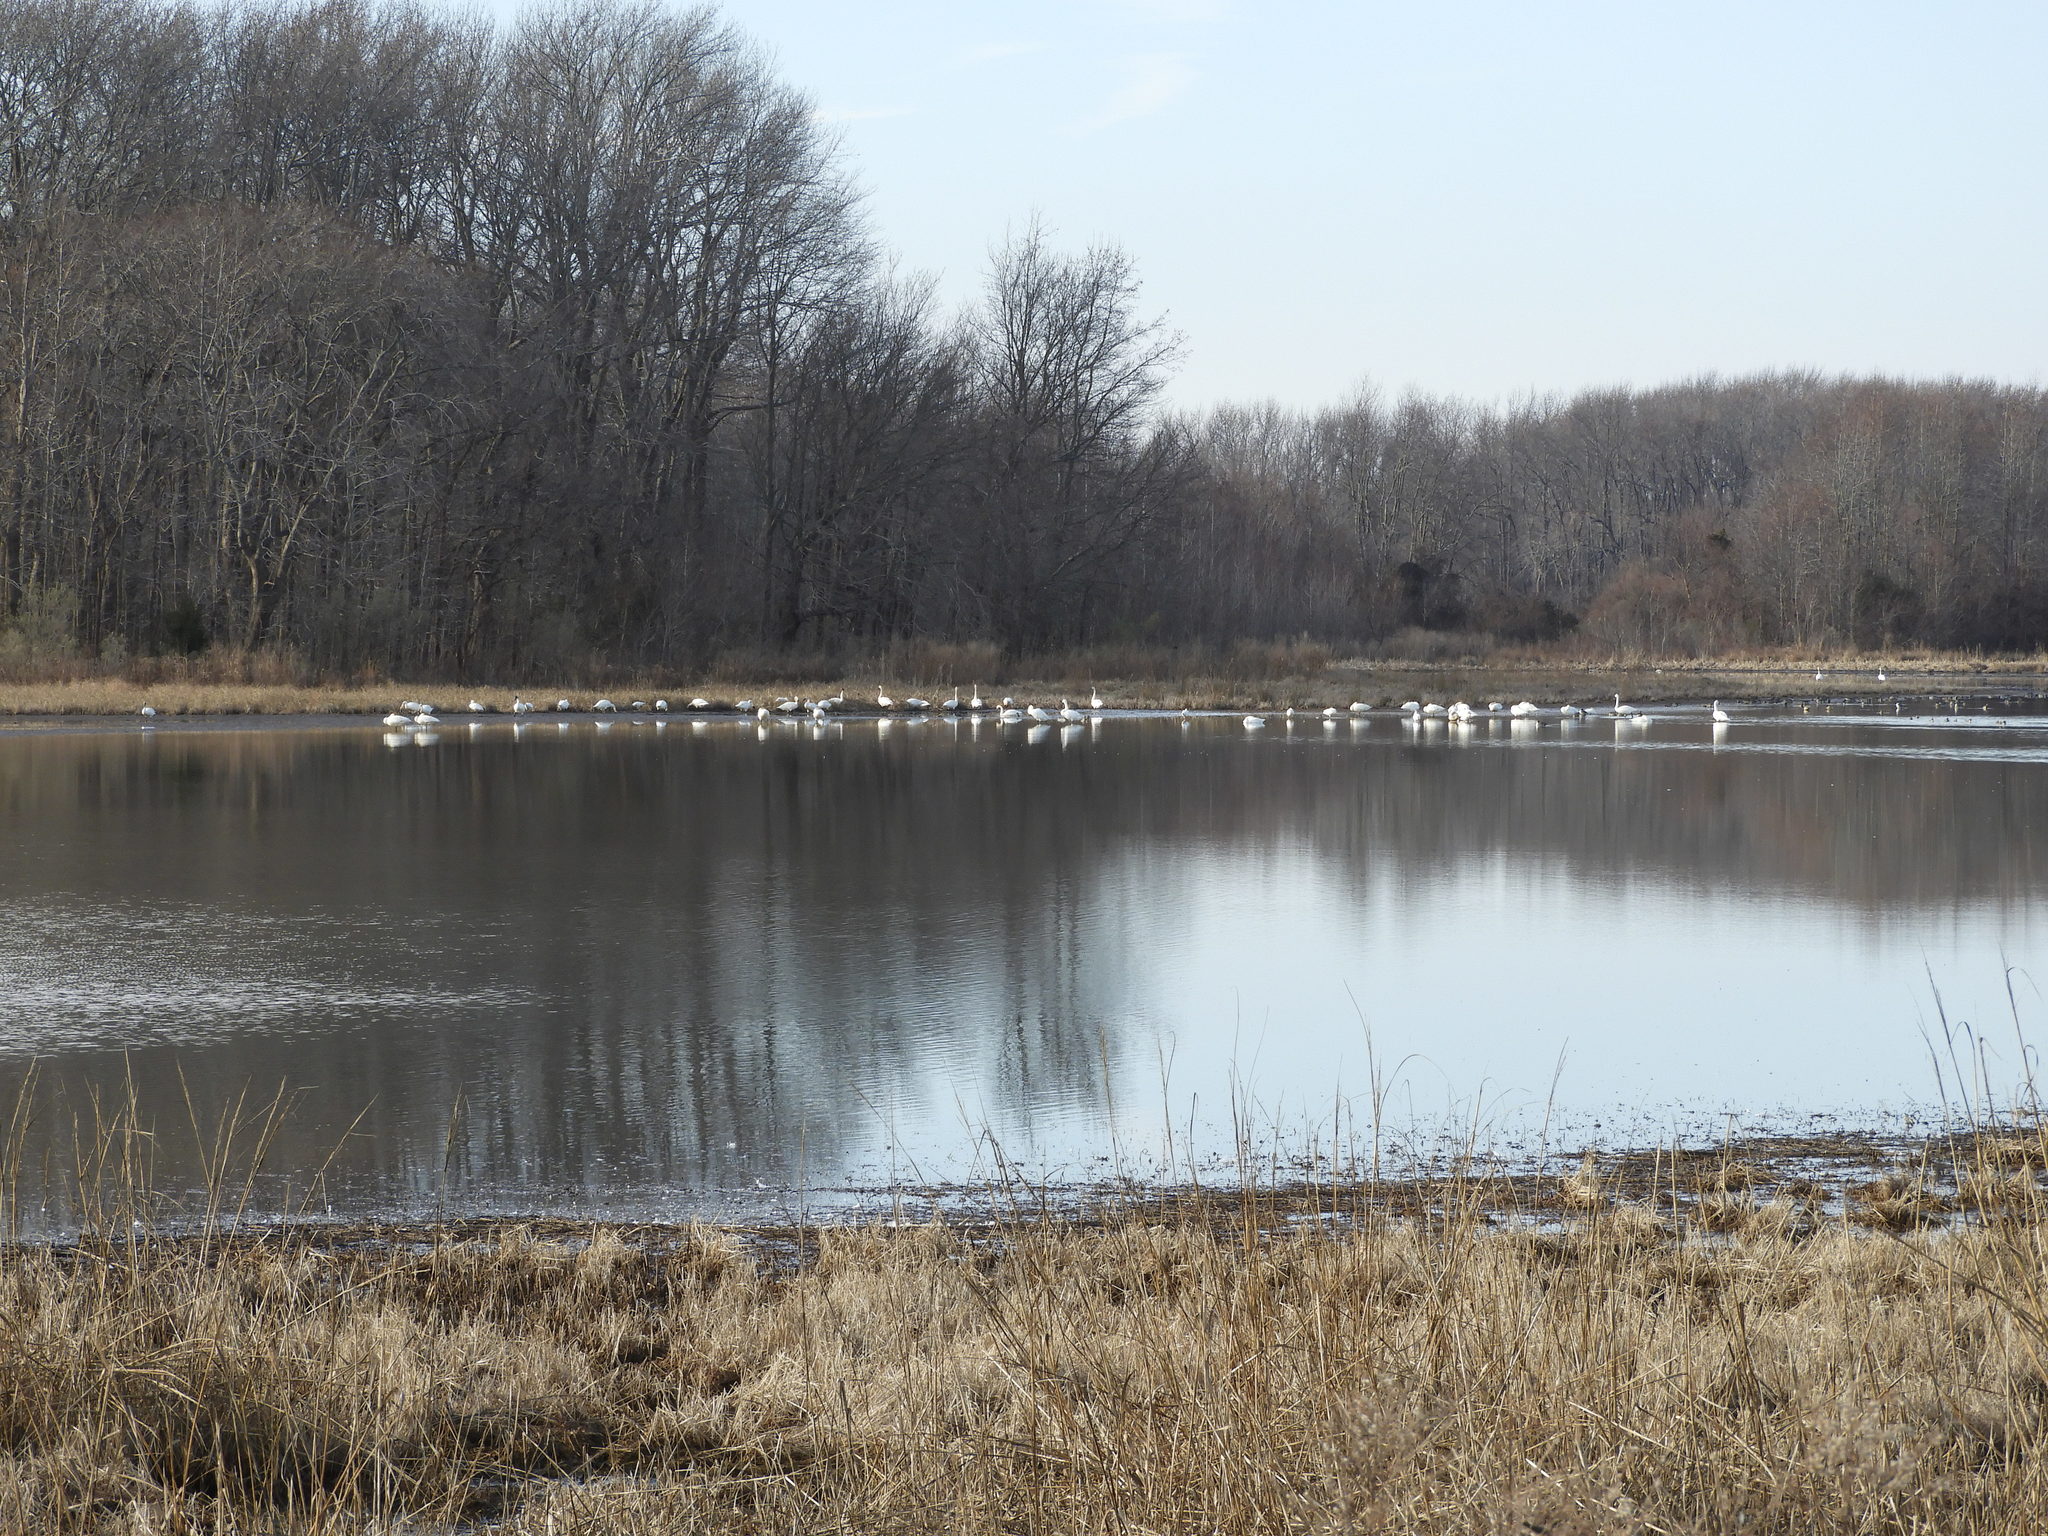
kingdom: Animalia
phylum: Chordata
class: Aves
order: Anseriformes
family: Anatidae
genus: Cygnus
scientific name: Cygnus columbianus
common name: Tundra swan
